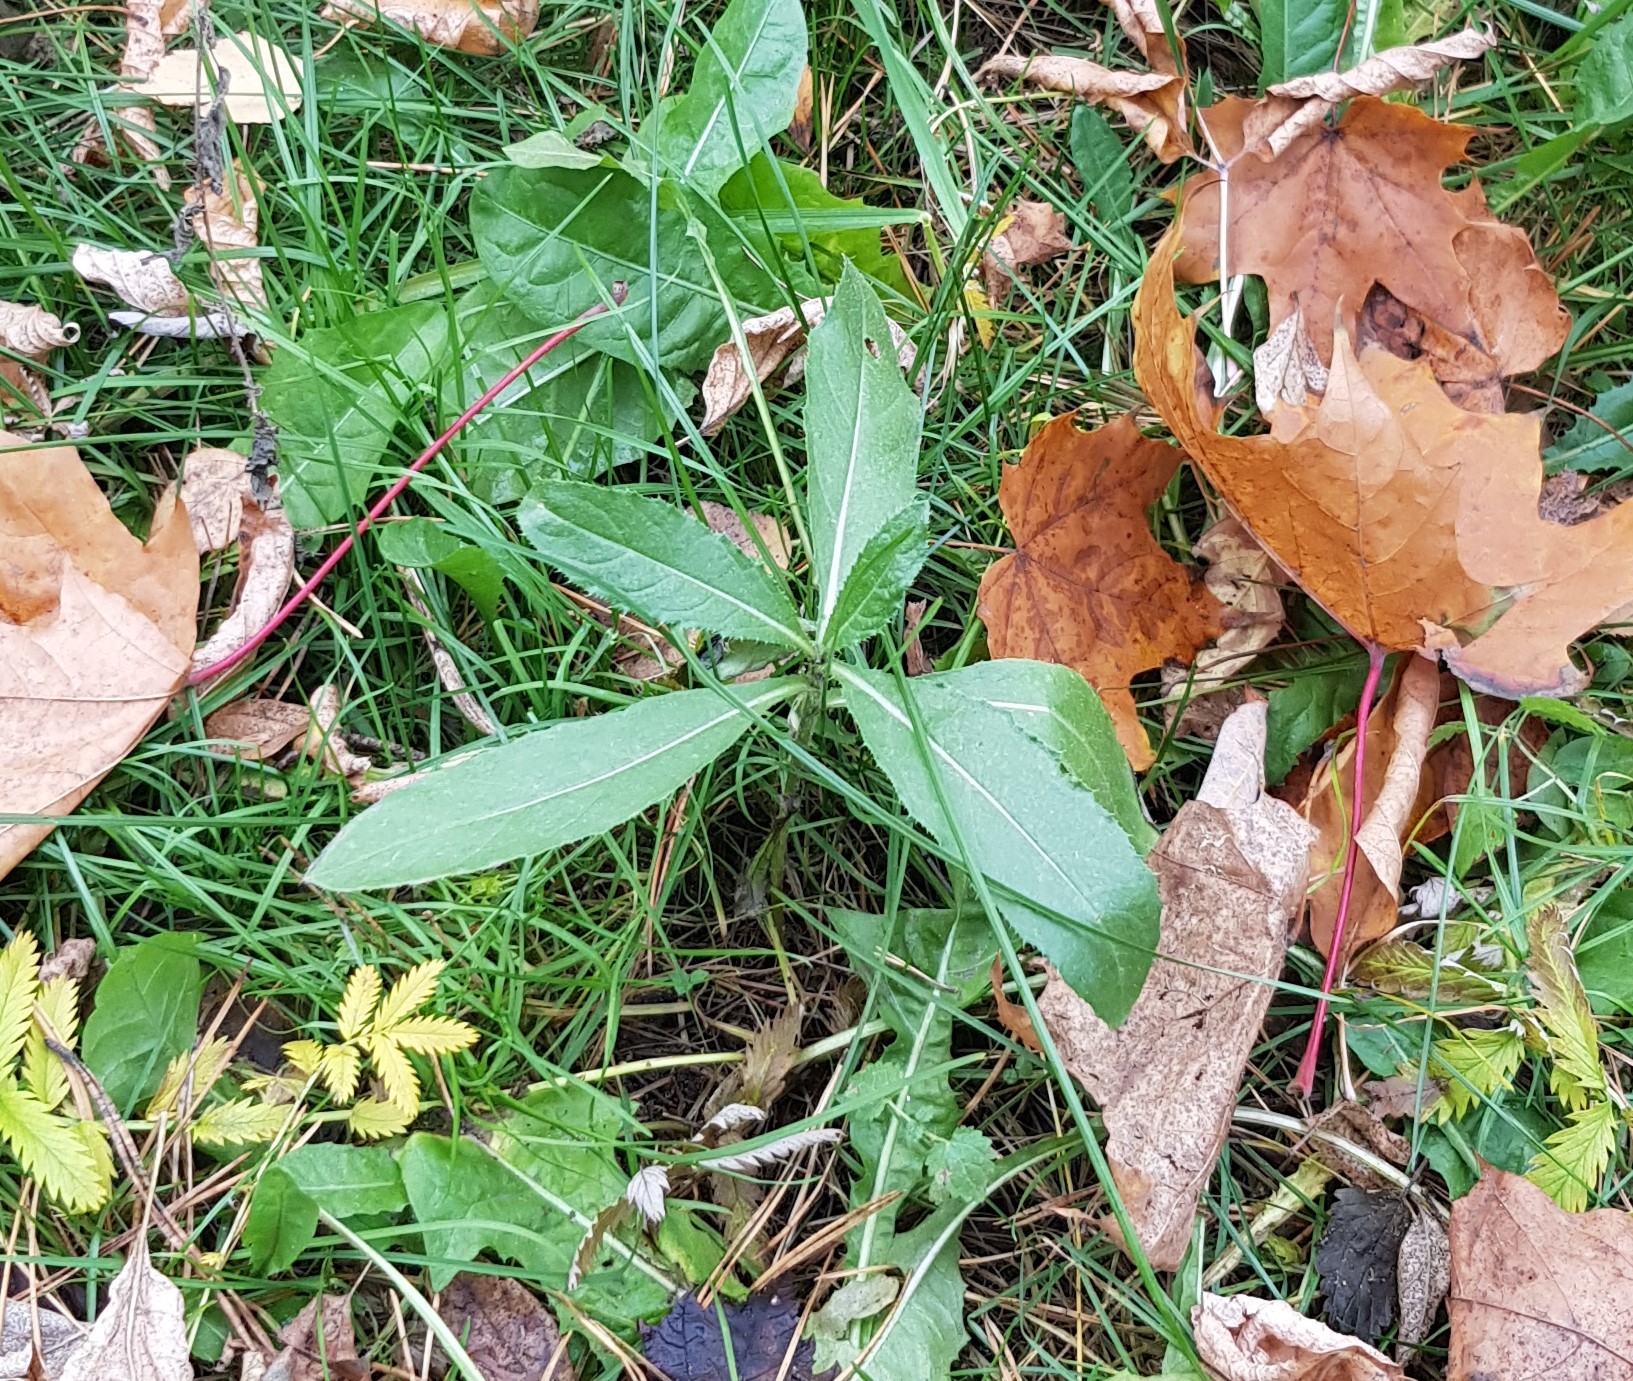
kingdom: Plantae
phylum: Tracheophyta
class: Magnoliopsida
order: Asterales
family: Asteraceae
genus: Cirsium
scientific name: Cirsium arvense
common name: Creeping thistle
